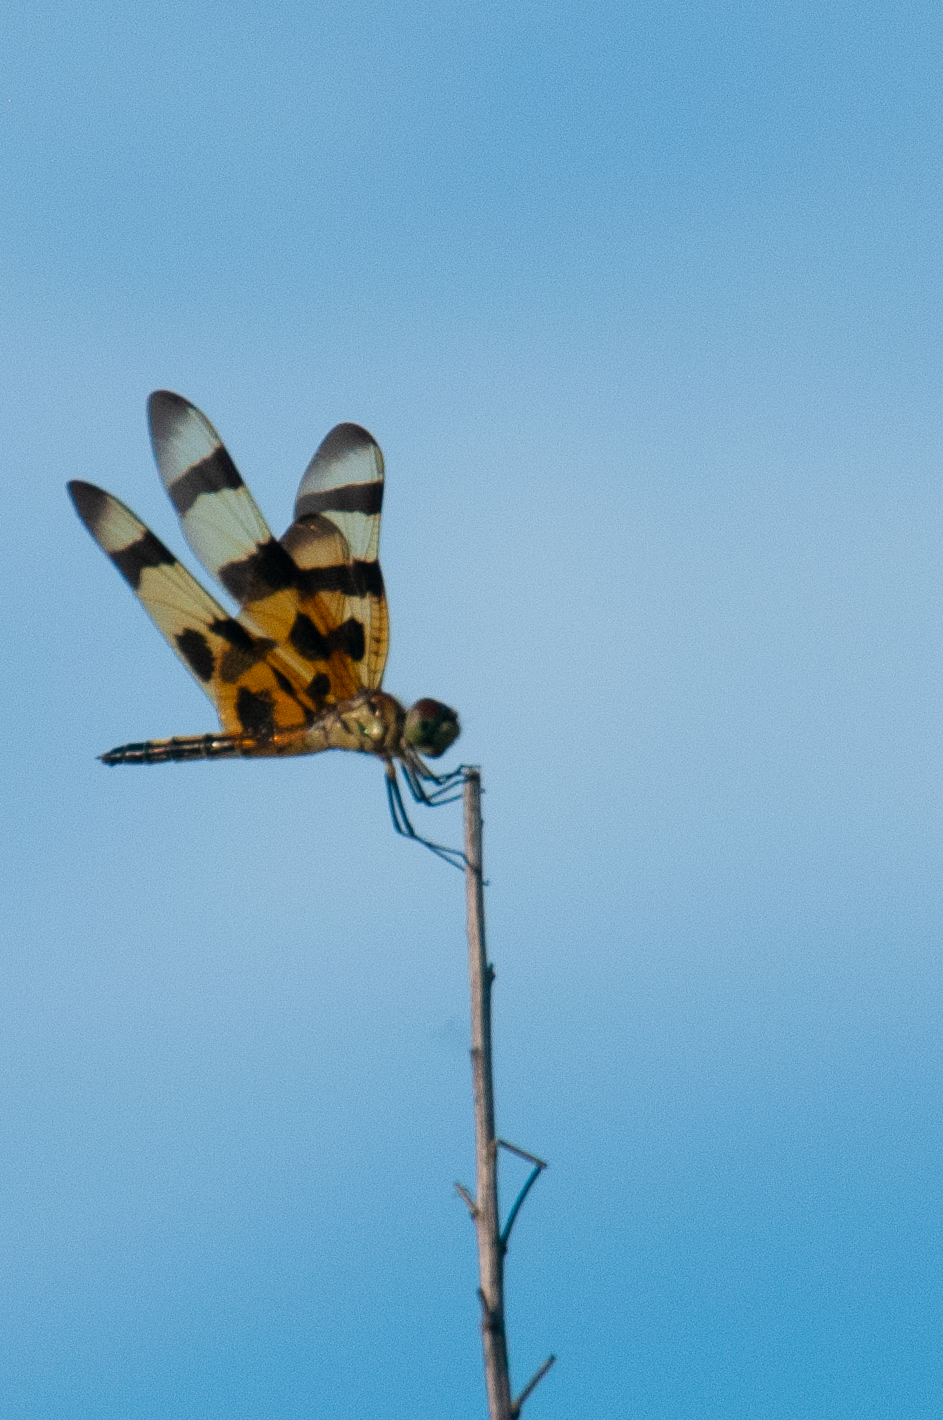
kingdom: Animalia
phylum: Arthropoda
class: Insecta
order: Odonata
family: Libellulidae
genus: Celithemis
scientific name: Celithemis eponina
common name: Halloween pennant
